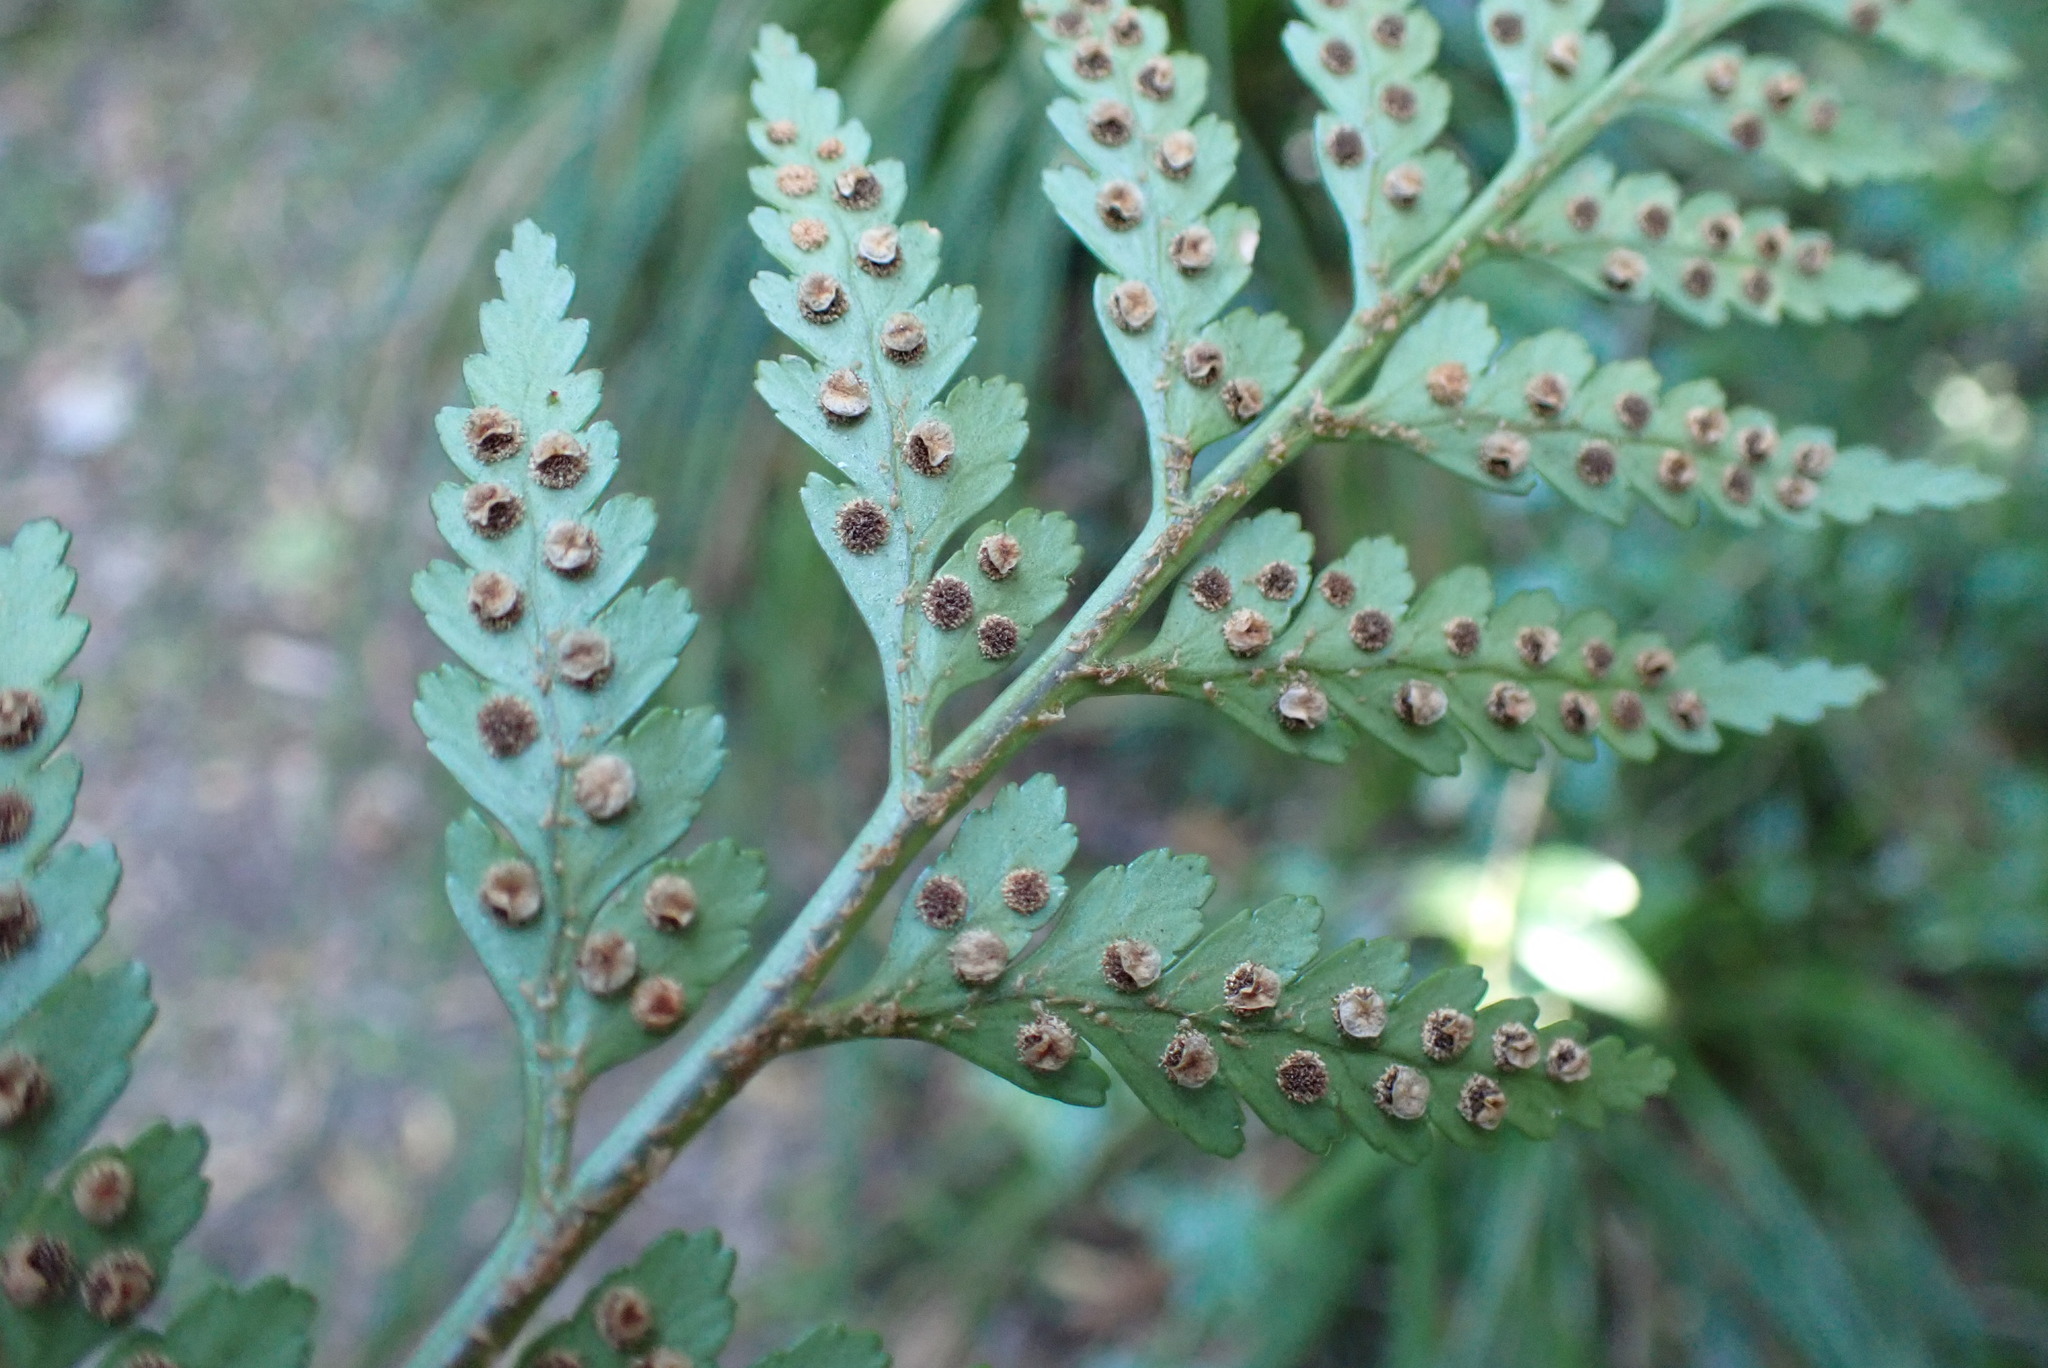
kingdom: Plantae
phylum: Tracheophyta
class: Polypodiopsida
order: Polypodiales
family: Dryopteridaceae
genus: Rumohra
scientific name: Rumohra adiantiformis
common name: Leather fern
